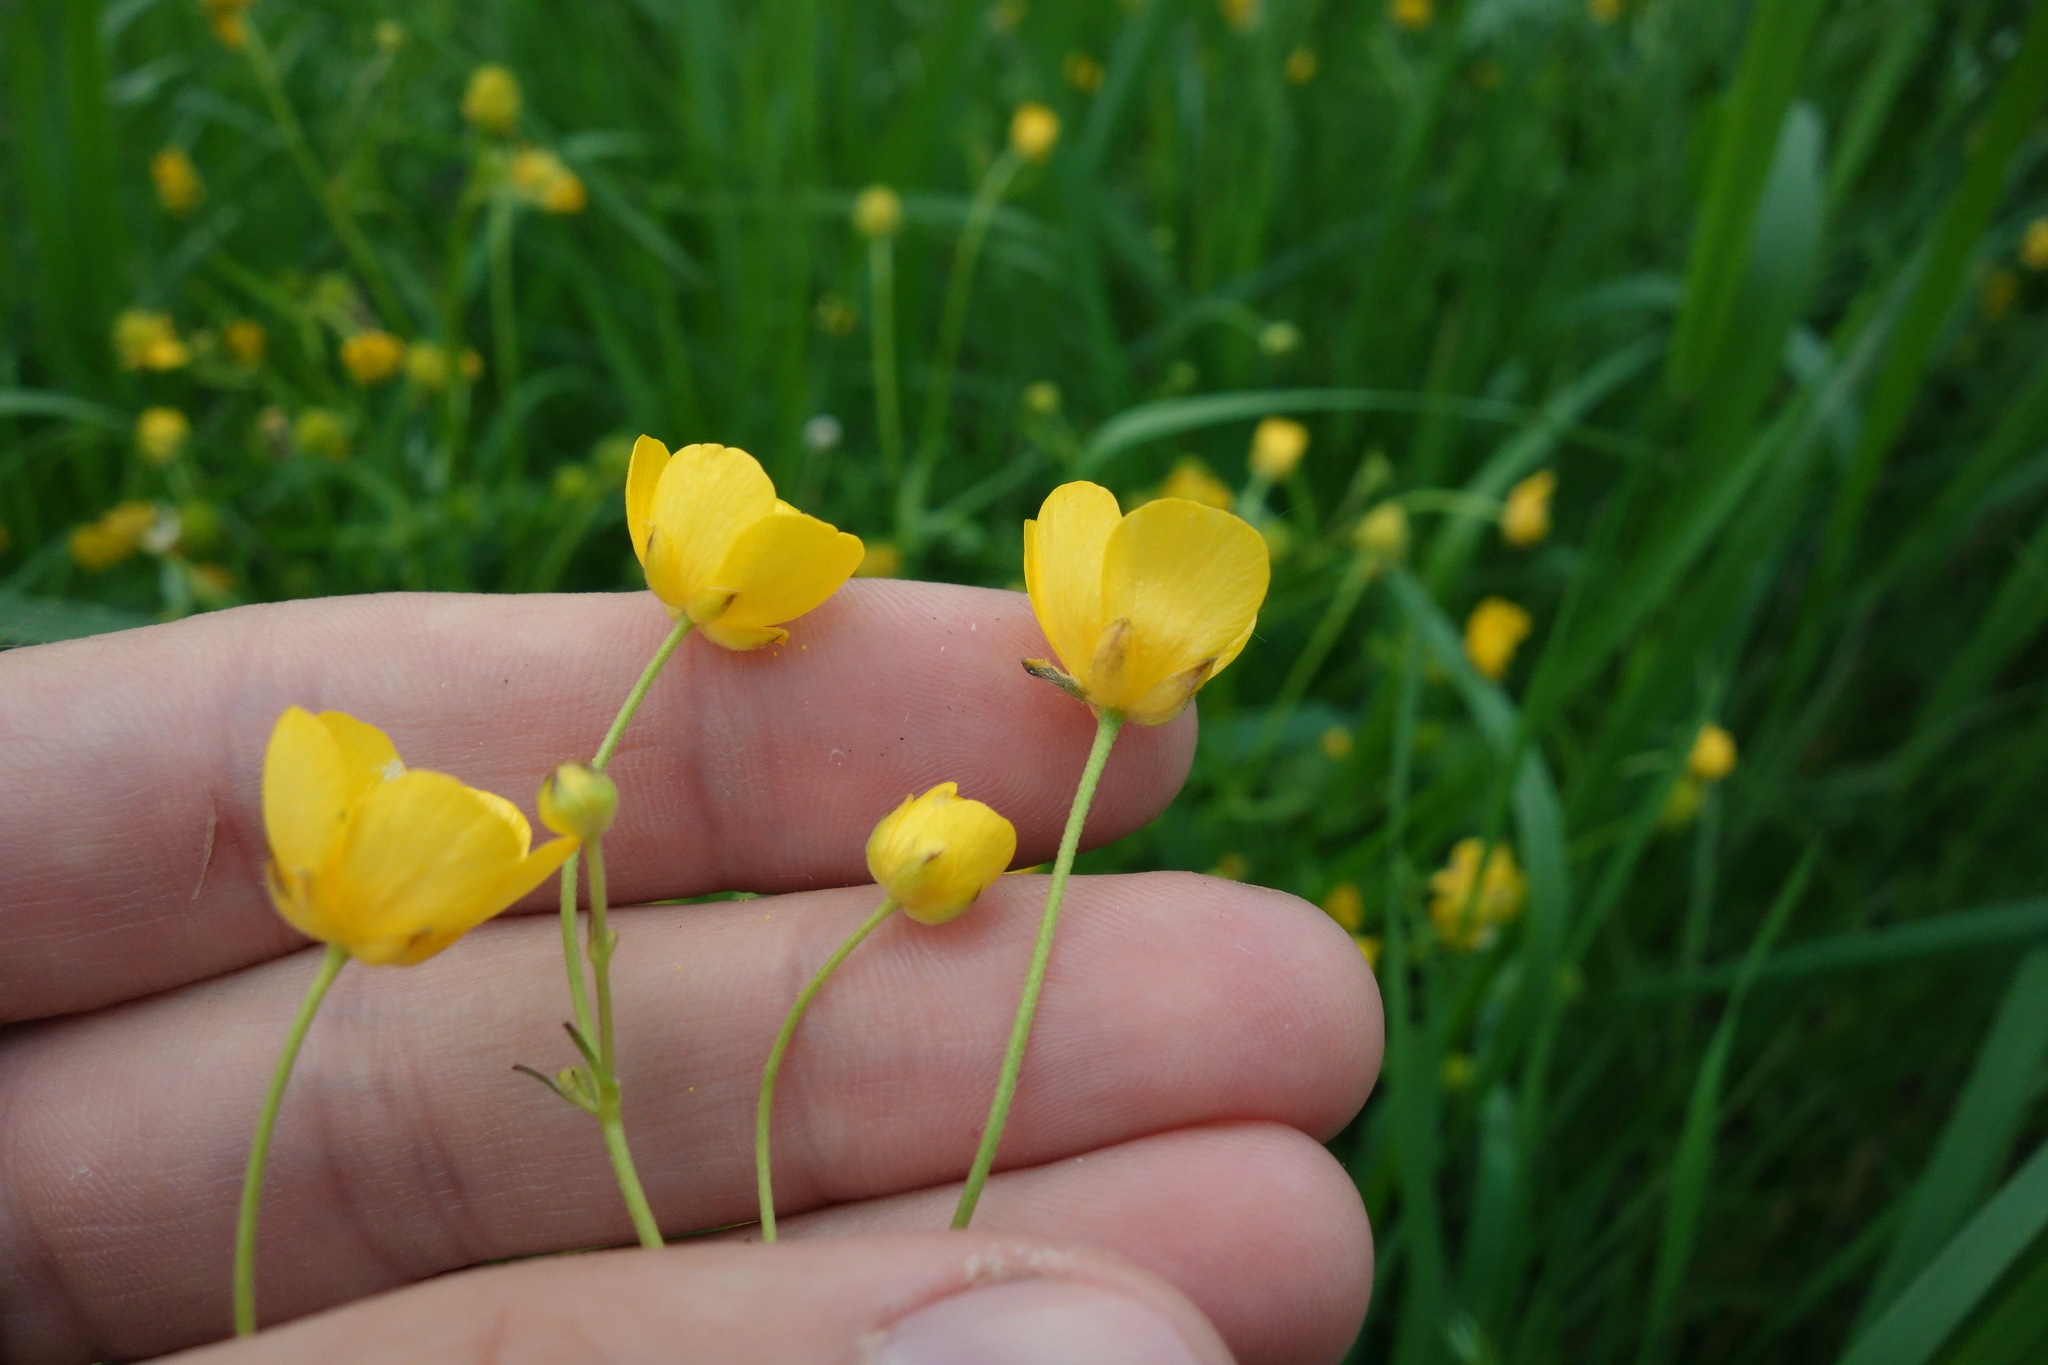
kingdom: Plantae
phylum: Tracheophyta
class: Magnoliopsida
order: Ranunculales
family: Ranunculaceae
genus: Ranunculus
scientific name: Ranunculus acris
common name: Meadow buttercup
